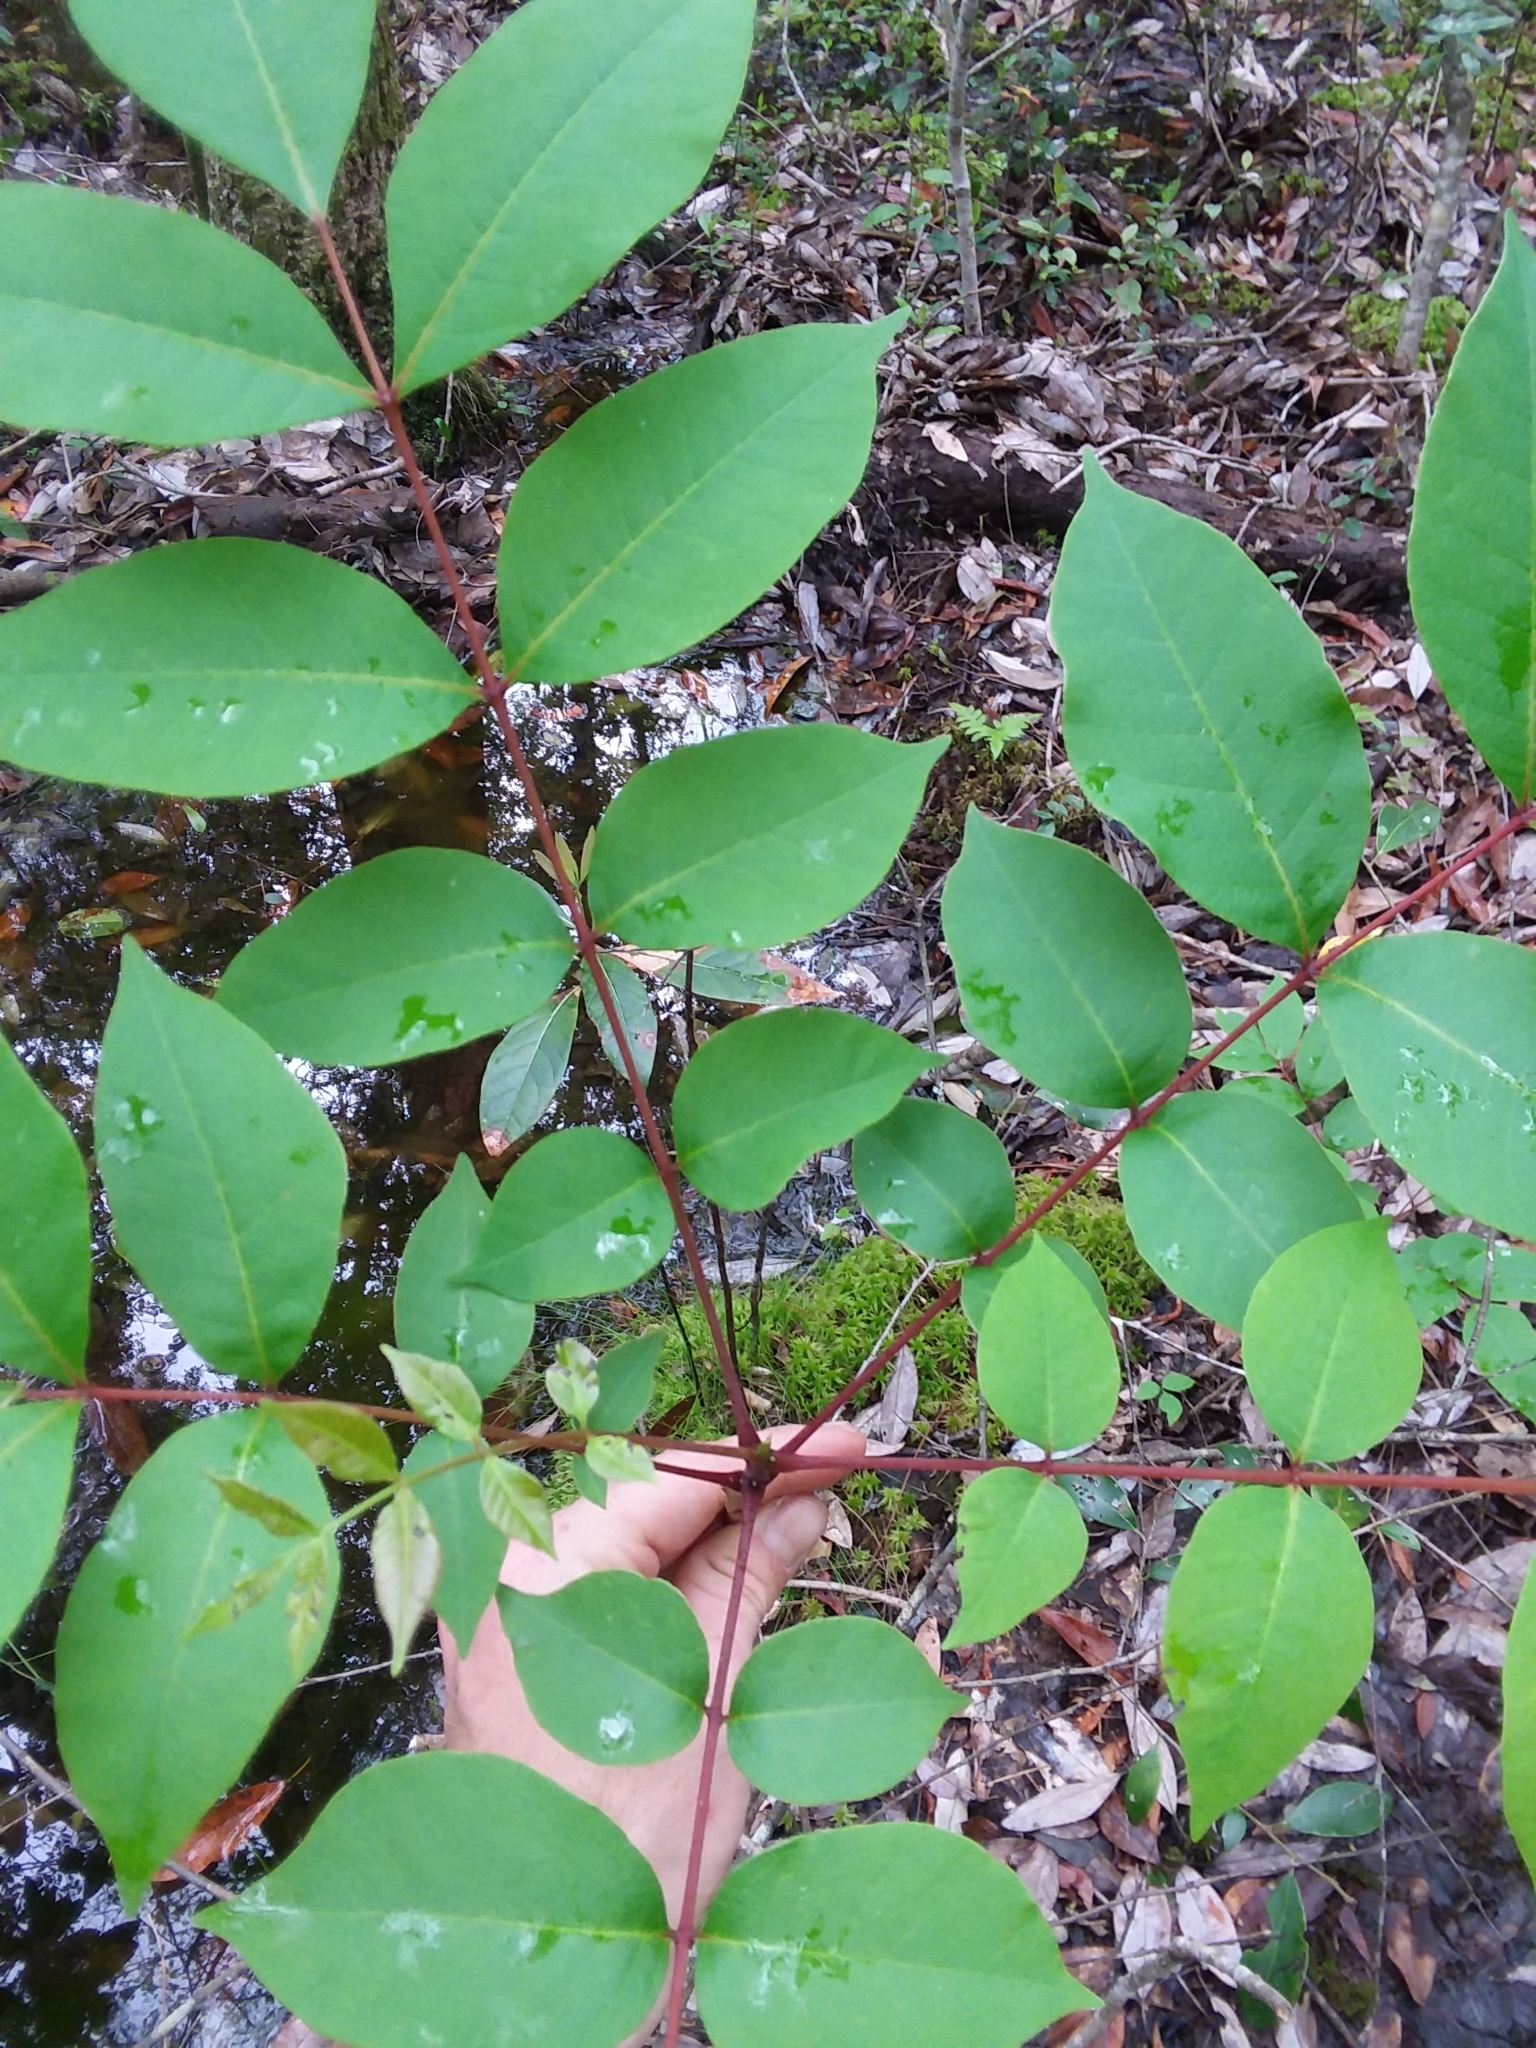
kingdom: Plantae
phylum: Tracheophyta
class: Magnoliopsida
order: Sapindales
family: Anacardiaceae
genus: Toxicodendron
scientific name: Toxicodendron vernix
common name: Poison sumac
